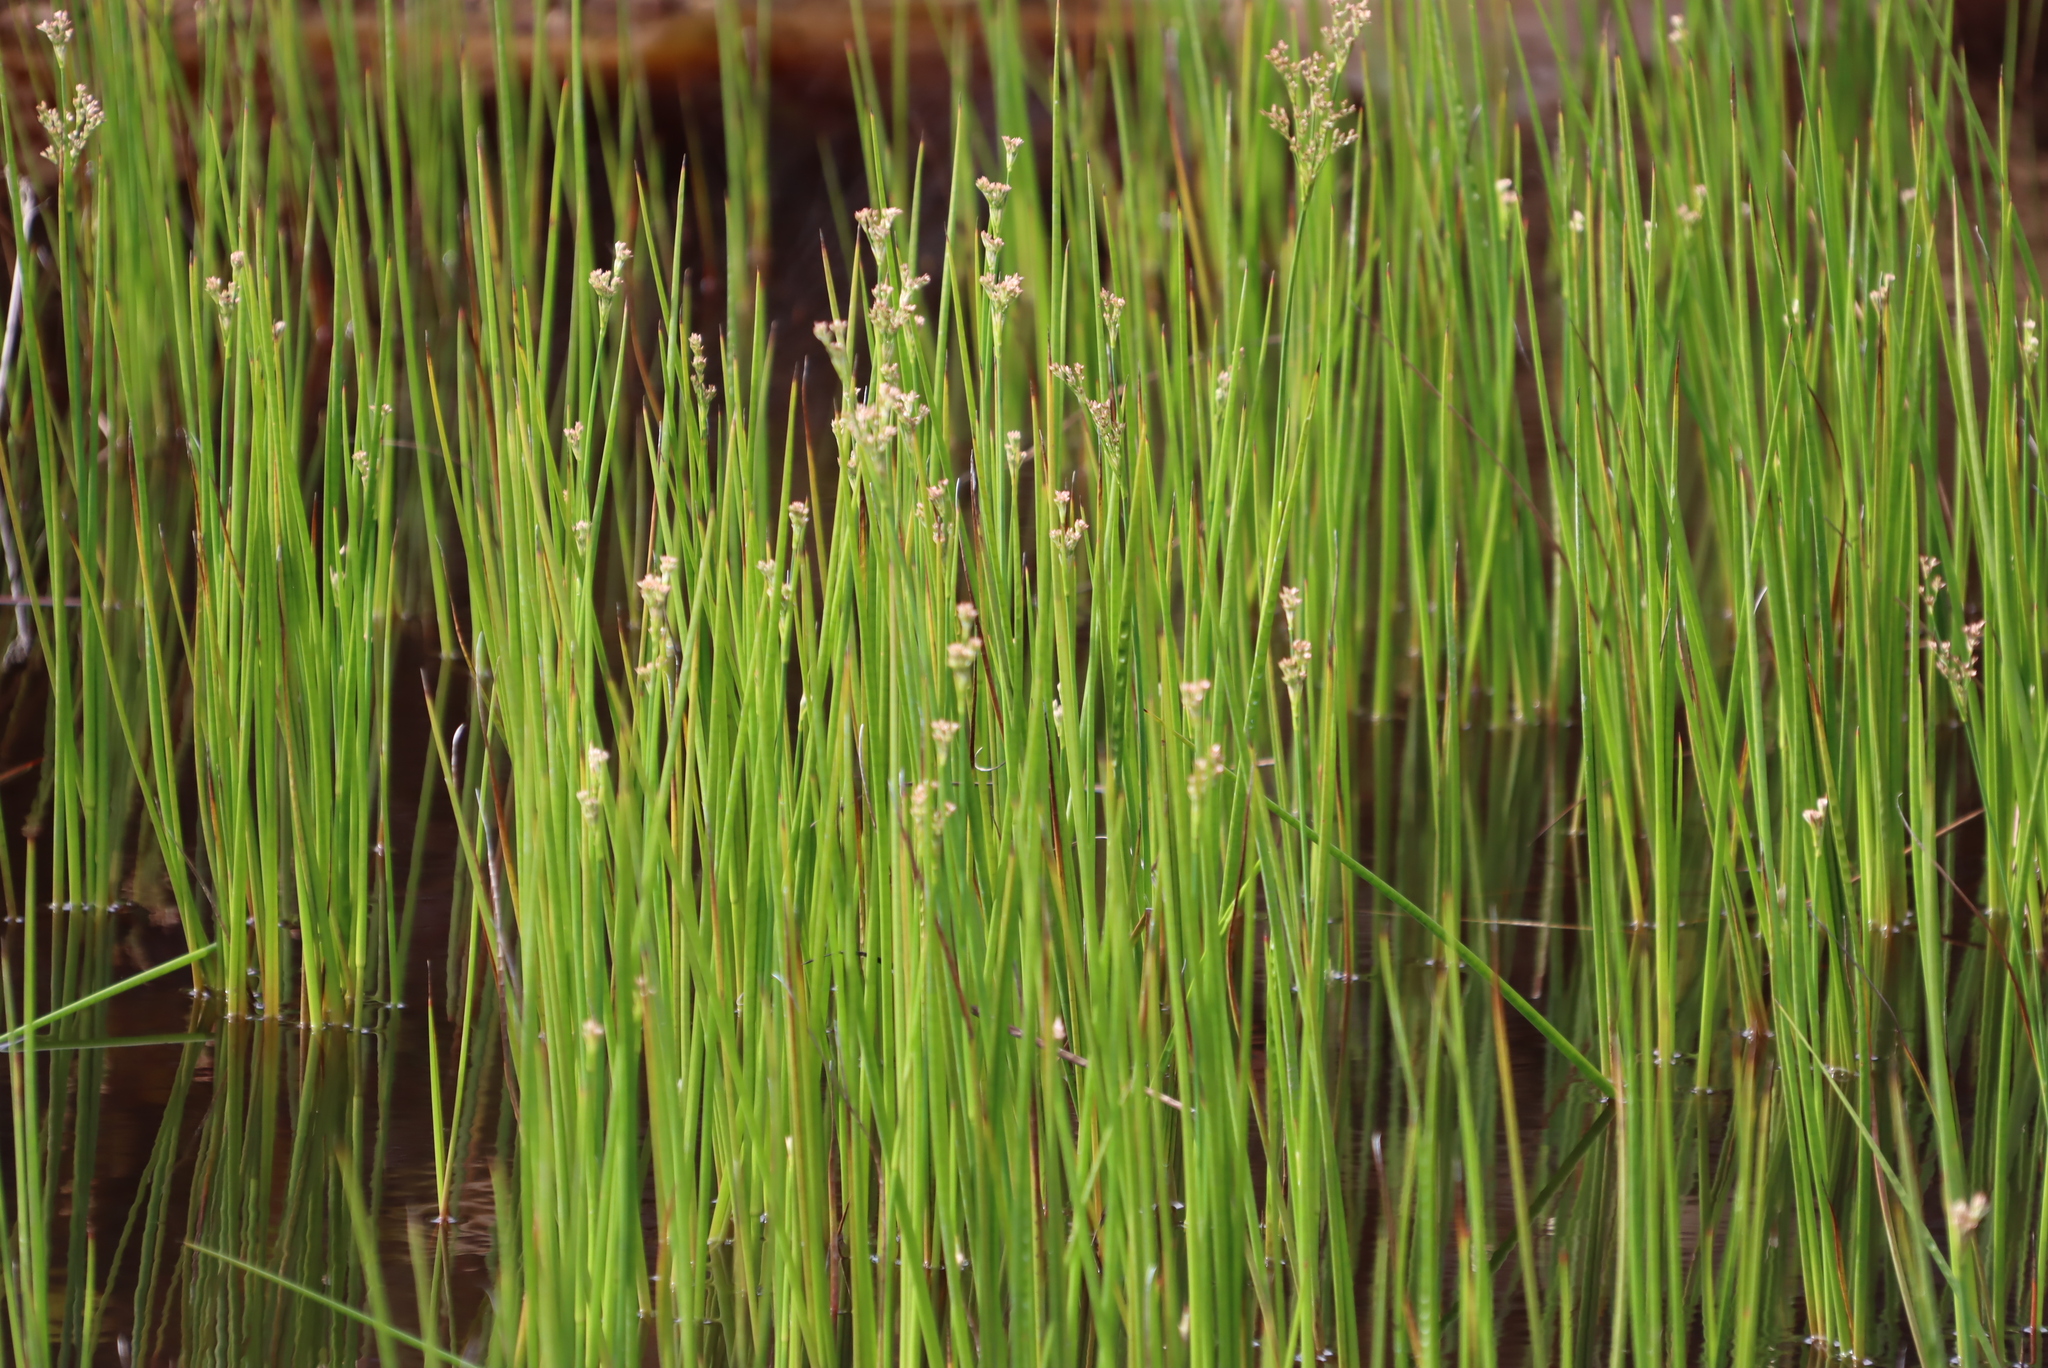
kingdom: Plantae
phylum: Tracheophyta
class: Liliopsida
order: Poales
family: Juncaceae
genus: Juncus
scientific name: Juncus exsertus
